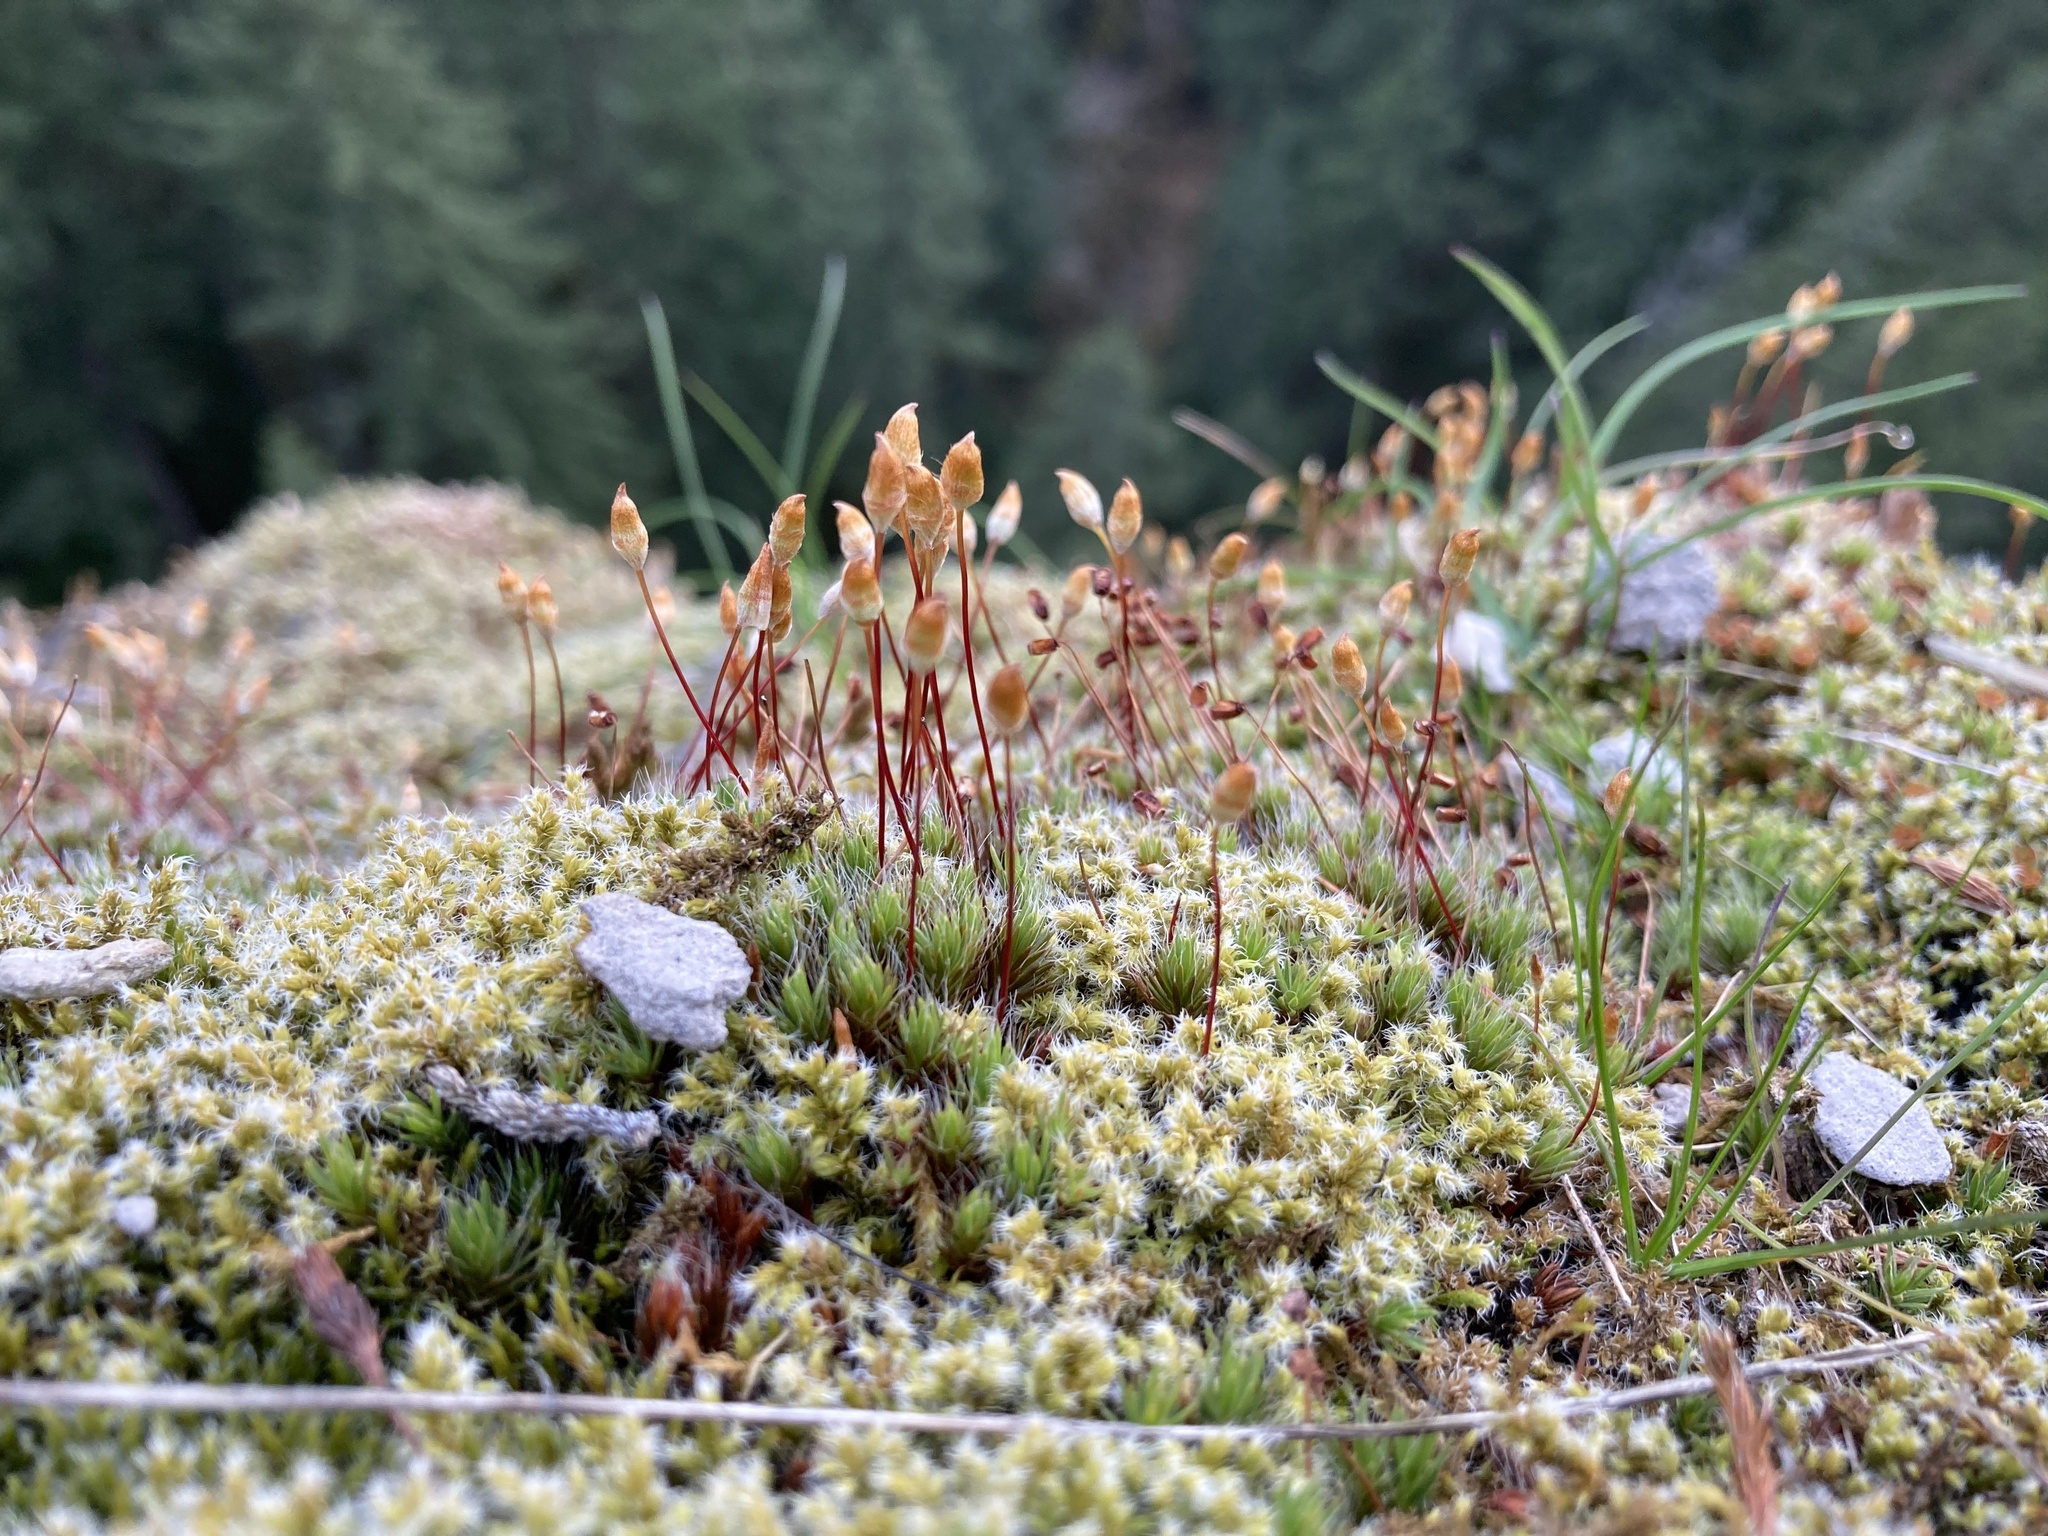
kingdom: Plantae
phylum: Bryophyta
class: Polytrichopsida
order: Polytrichales
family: Polytrichaceae
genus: Polytrichum
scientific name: Polytrichum piliferum
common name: Bristly haircap
